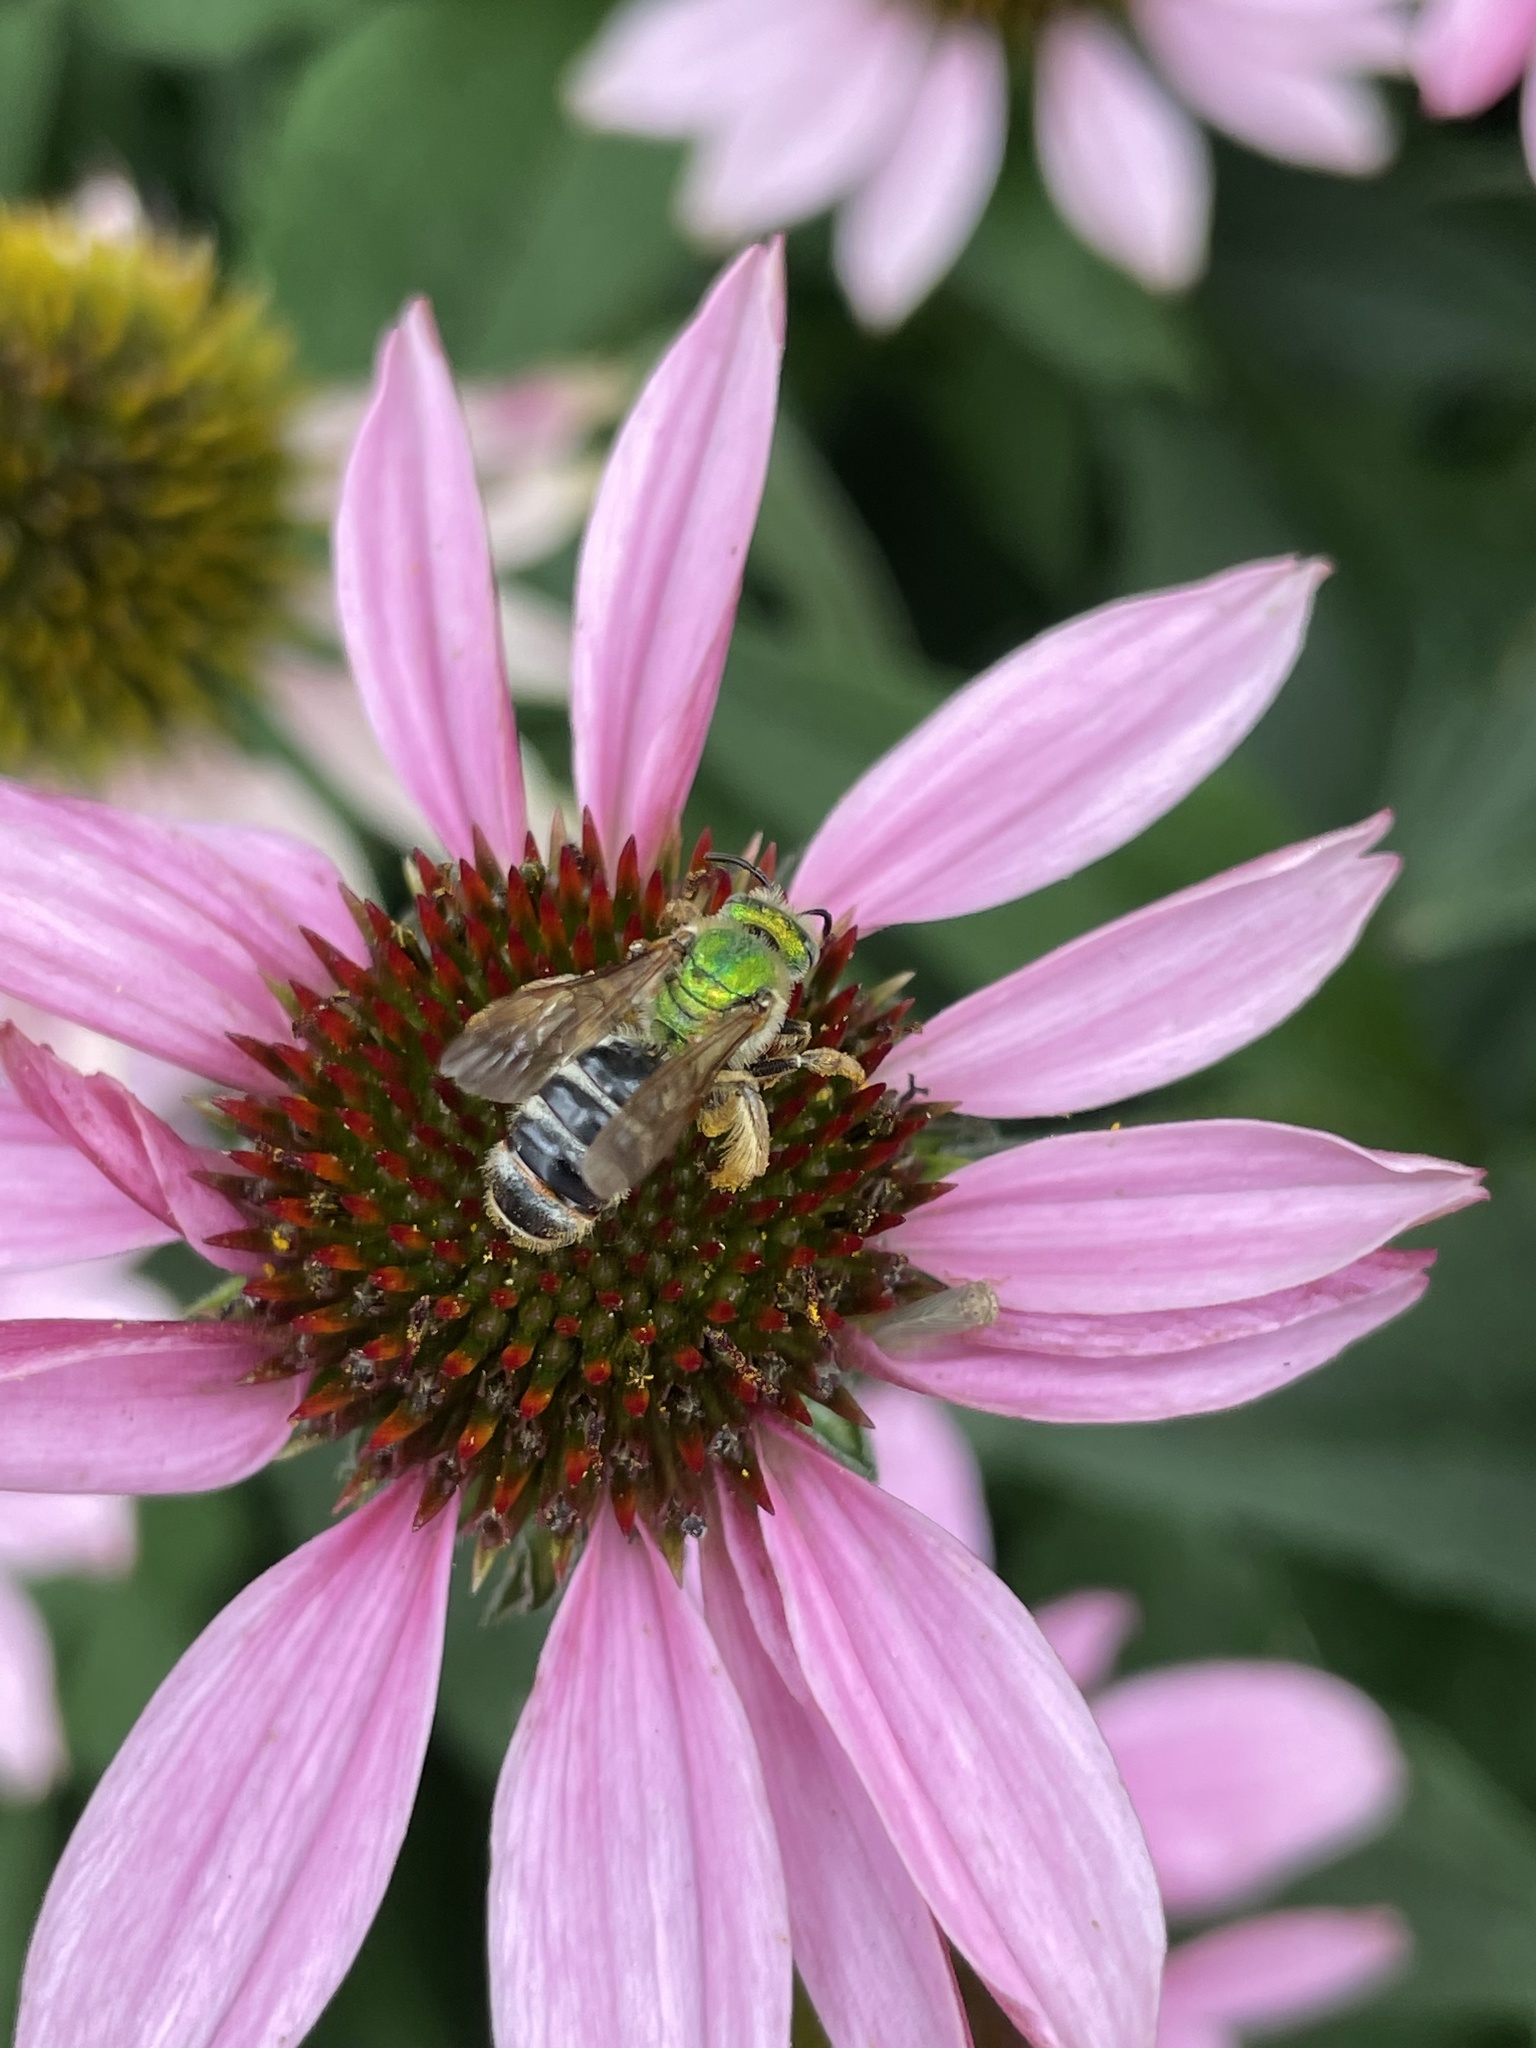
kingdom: Animalia
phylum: Arthropoda
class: Insecta
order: Hymenoptera
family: Halictidae
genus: Agapostemon
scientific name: Agapostemon virescens
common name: Bicolored striped sweat bee
